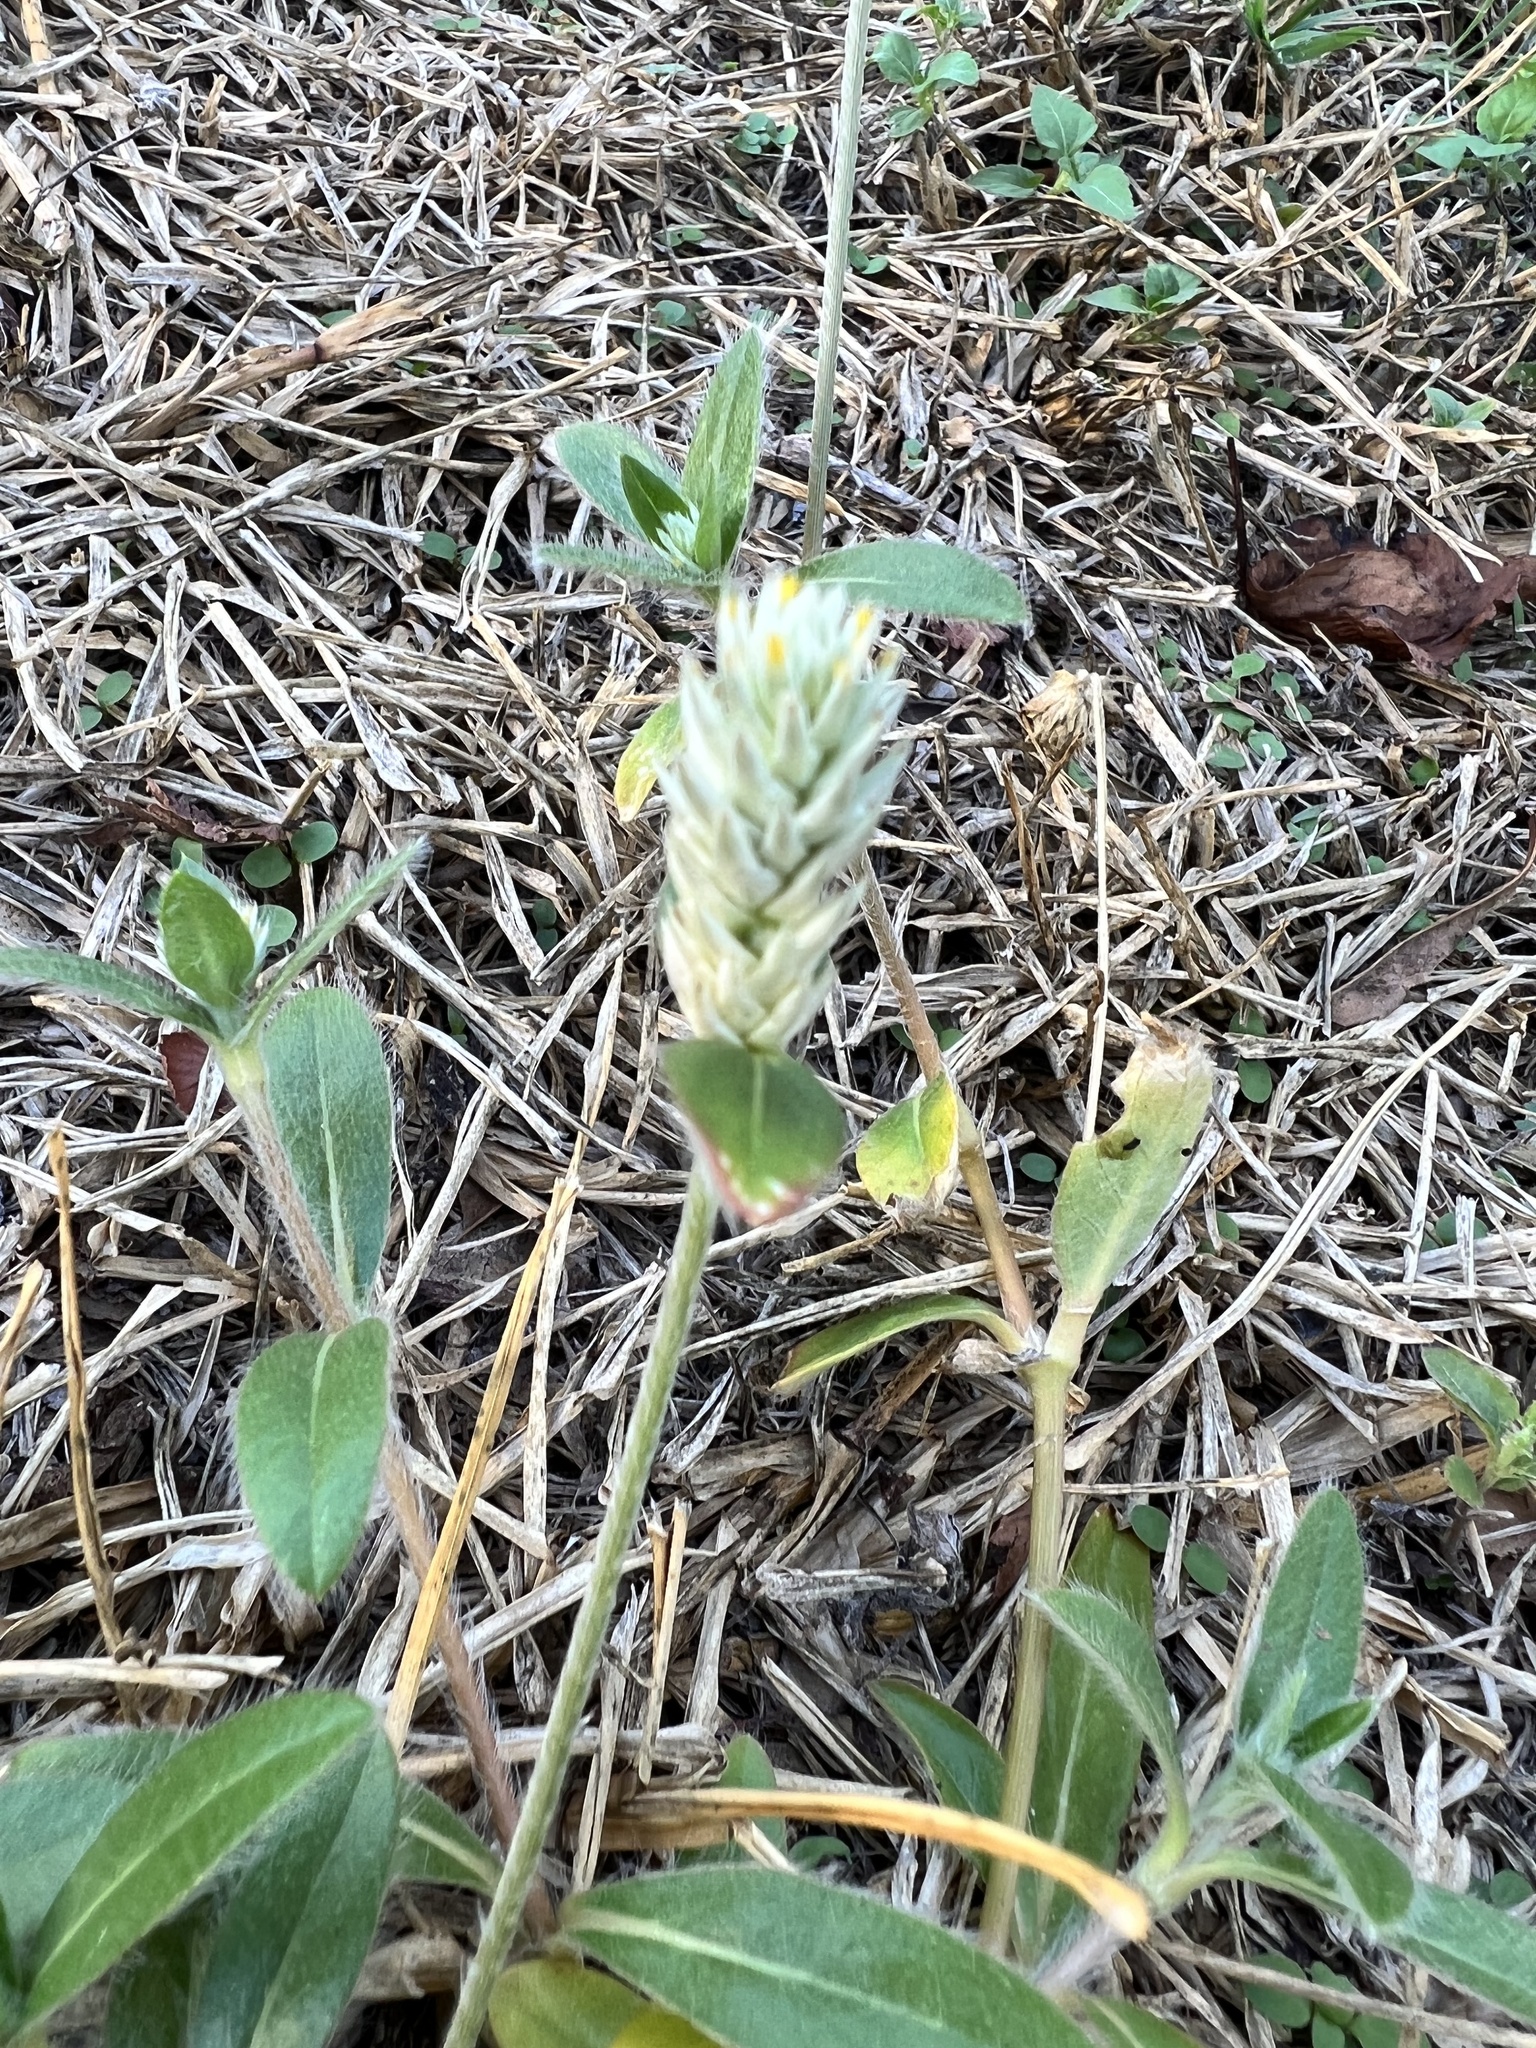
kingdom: Plantae
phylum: Tracheophyta
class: Magnoliopsida
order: Caryophyllales
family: Amaranthaceae
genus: Gomphrena
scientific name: Gomphrena serrata
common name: Arrasa con todo
